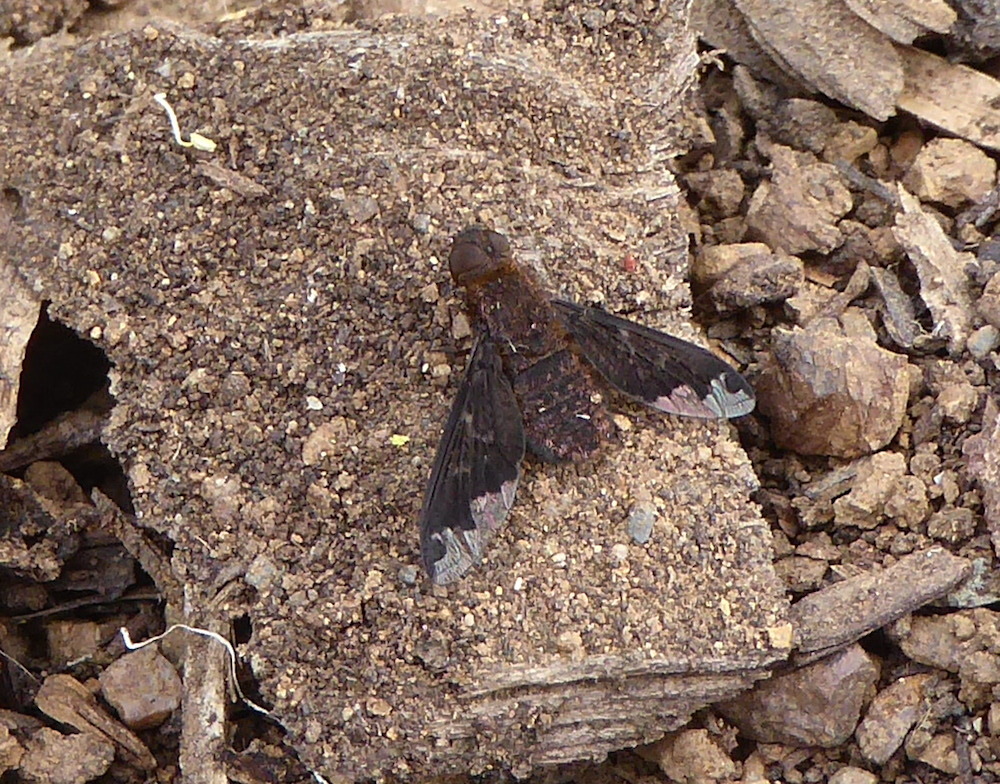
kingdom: Animalia
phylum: Arthropoda
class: Insecta
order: Diptera
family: Bombyliidae
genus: Hemipenthes
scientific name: Hemipenthes sinuosus
